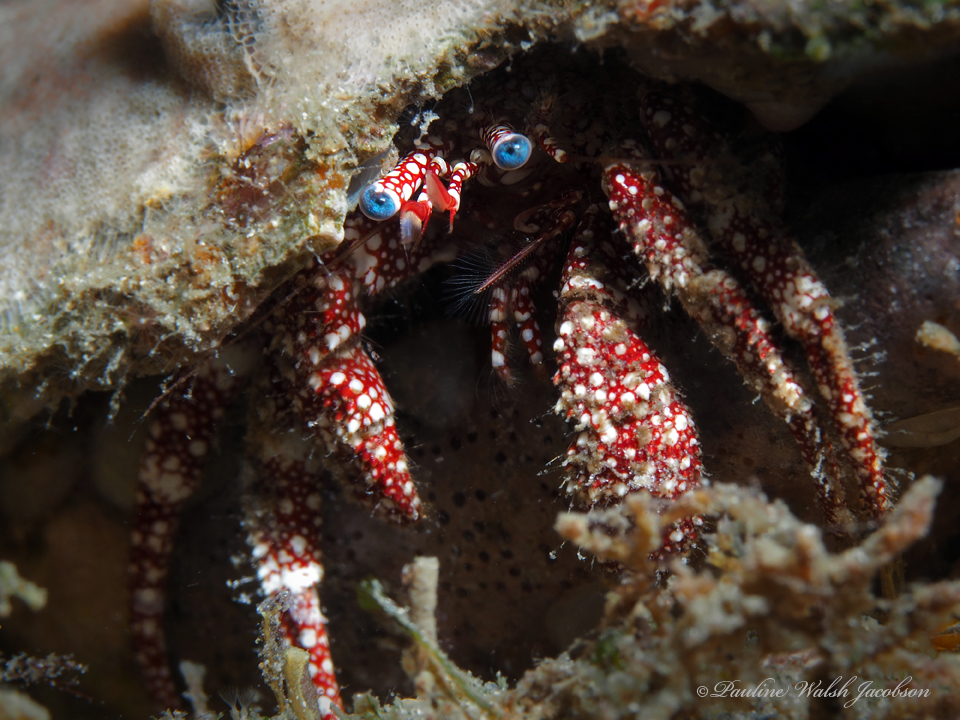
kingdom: Animalia
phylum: Arthropoda
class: Malacostraca
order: Decapoda
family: Diogenidae
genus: Paguristes
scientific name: Paguristes puncticeps
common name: White speckled hermit
